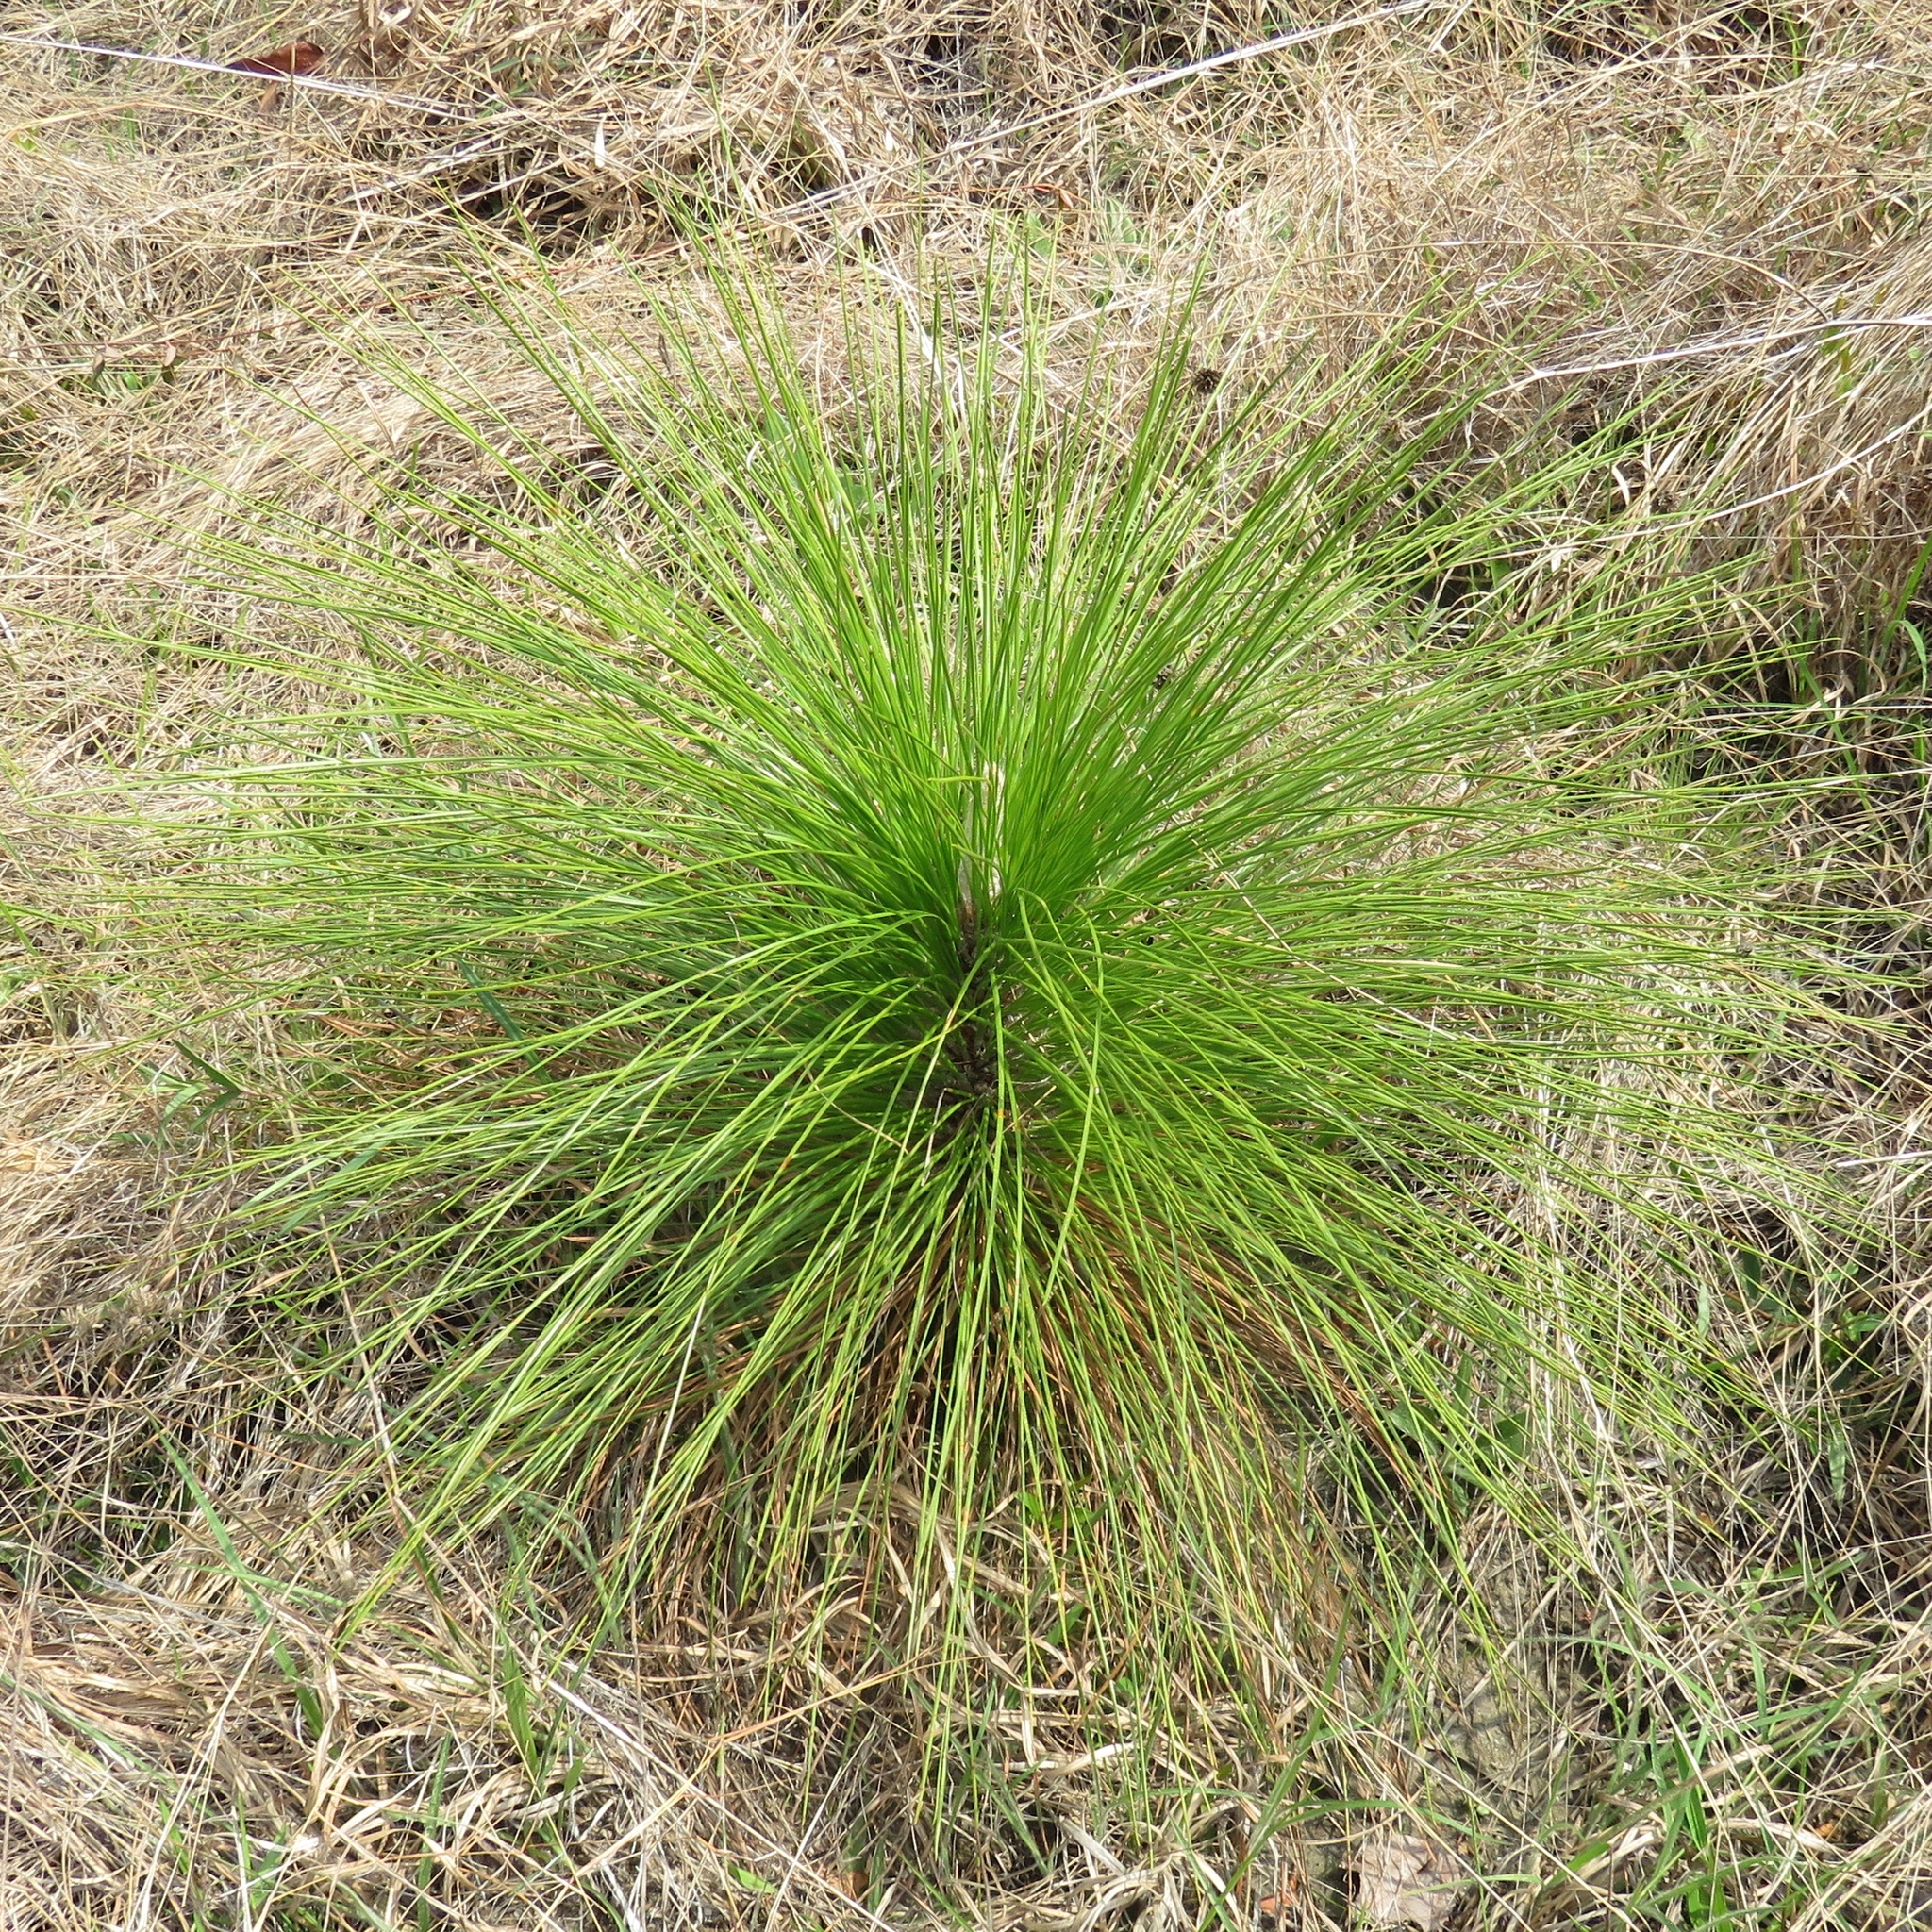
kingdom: Plantae
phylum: Tracheophyta
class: Pinopsida
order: Pinales
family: Pinaceae
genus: Pinus
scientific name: Pinus palustris
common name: Longleaf pine
